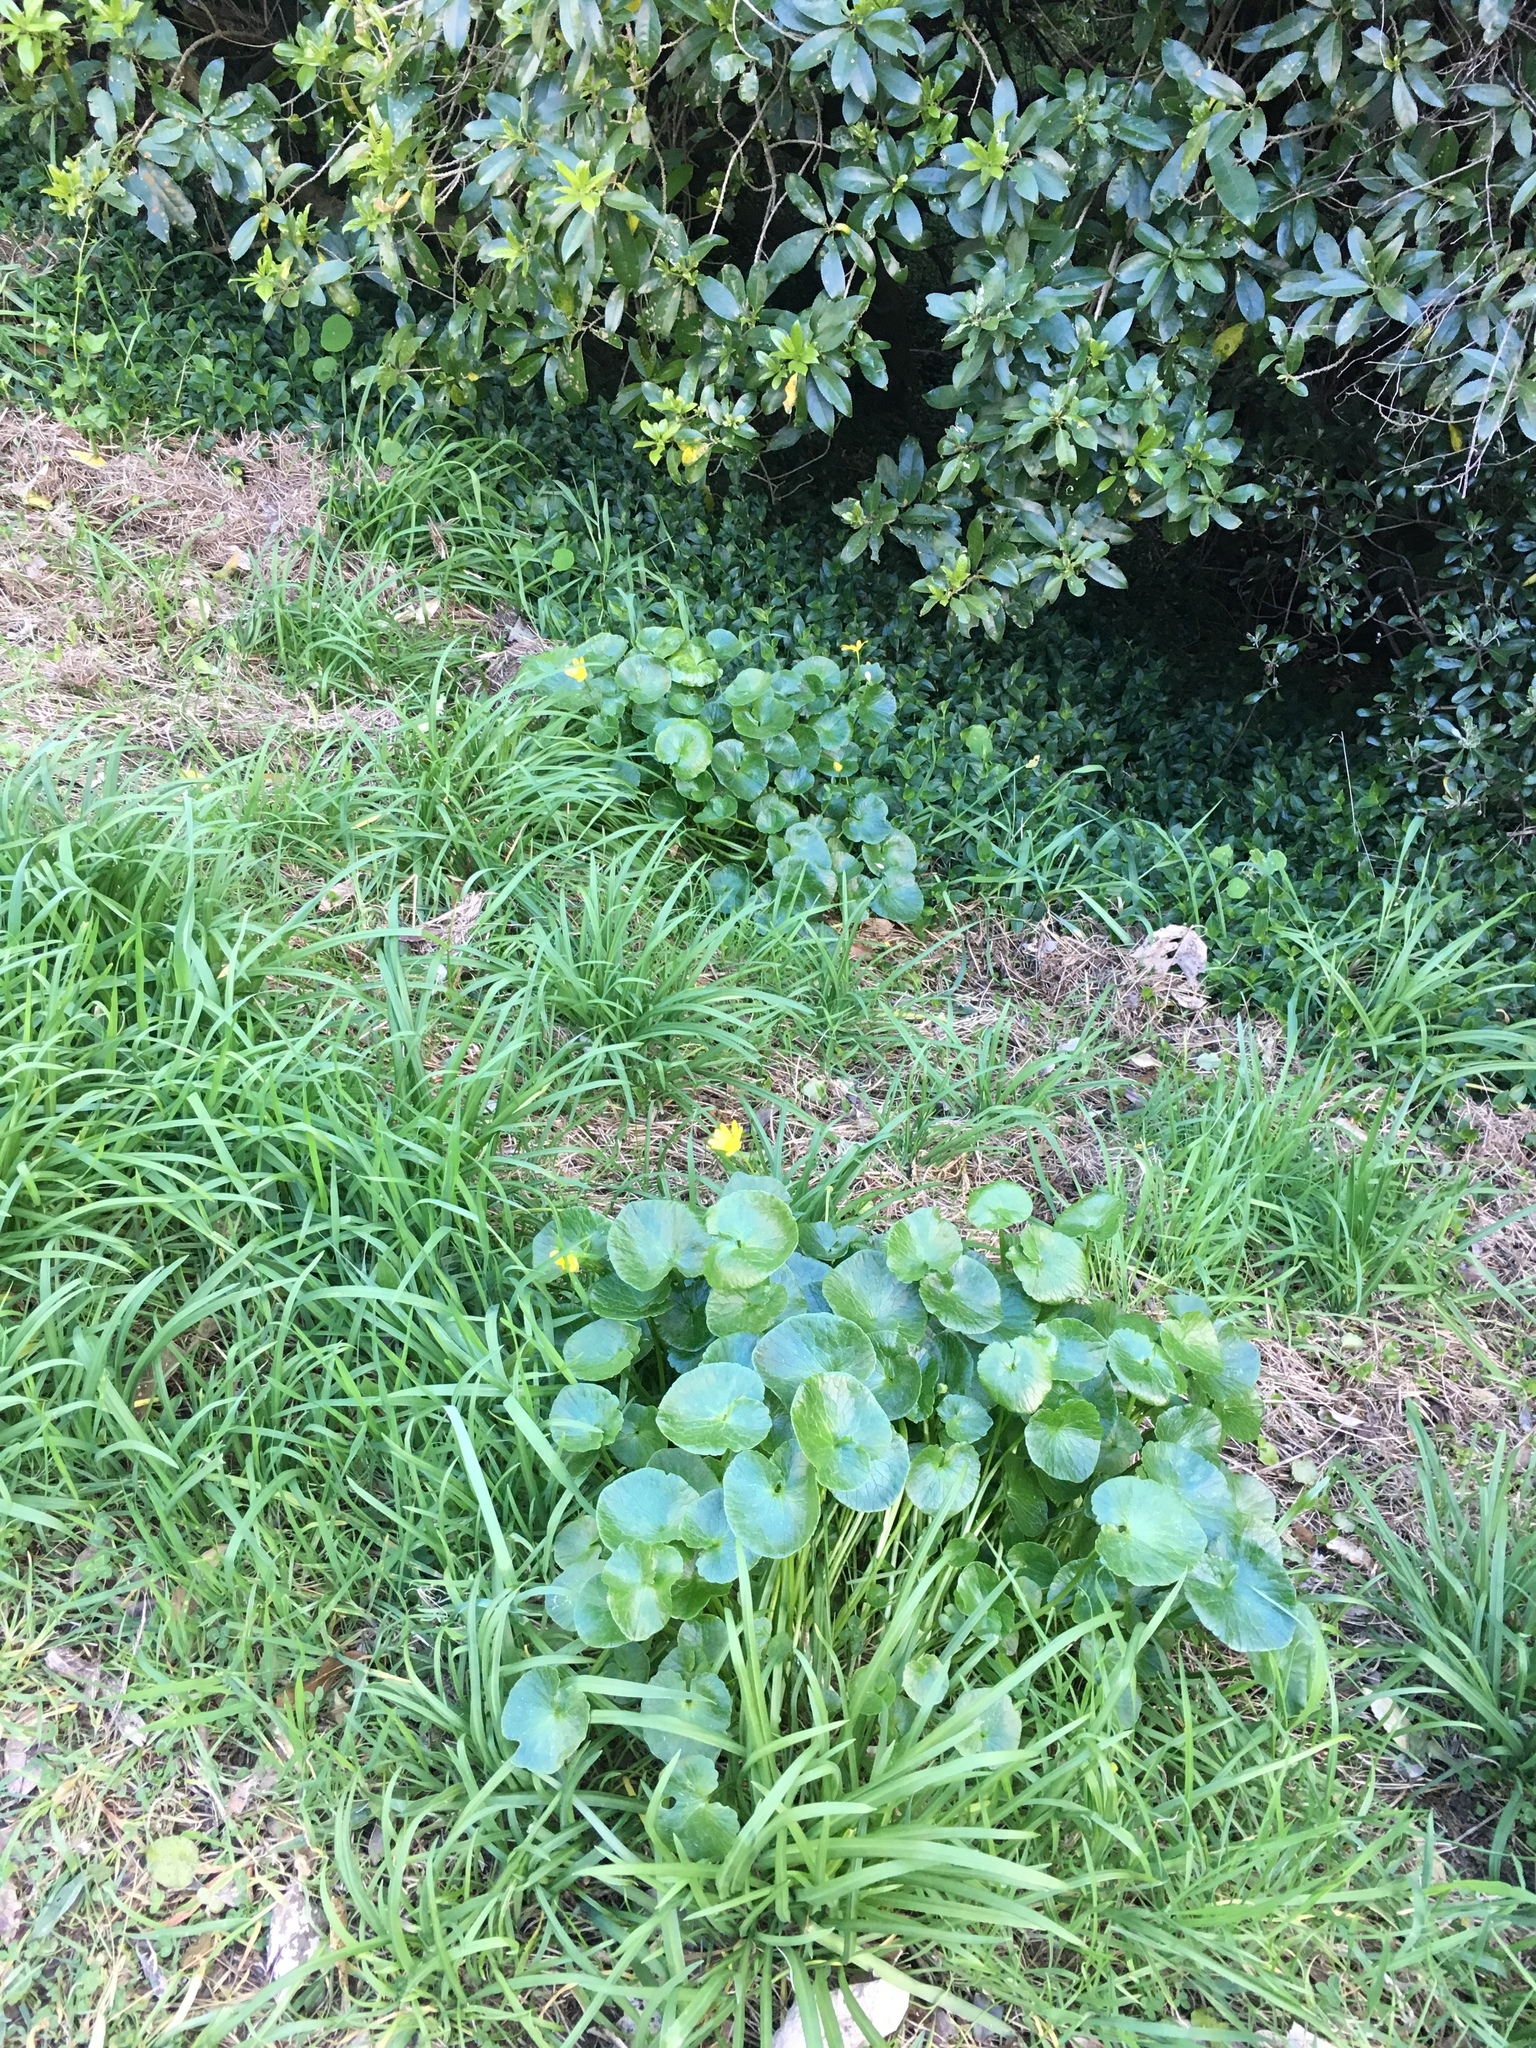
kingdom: Plantae
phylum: Tracheophyta
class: Magnoliopsida
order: Ranunculales
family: Ranunculaceae
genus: Ficaria
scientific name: Ficaria verna
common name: Lesser celandine
